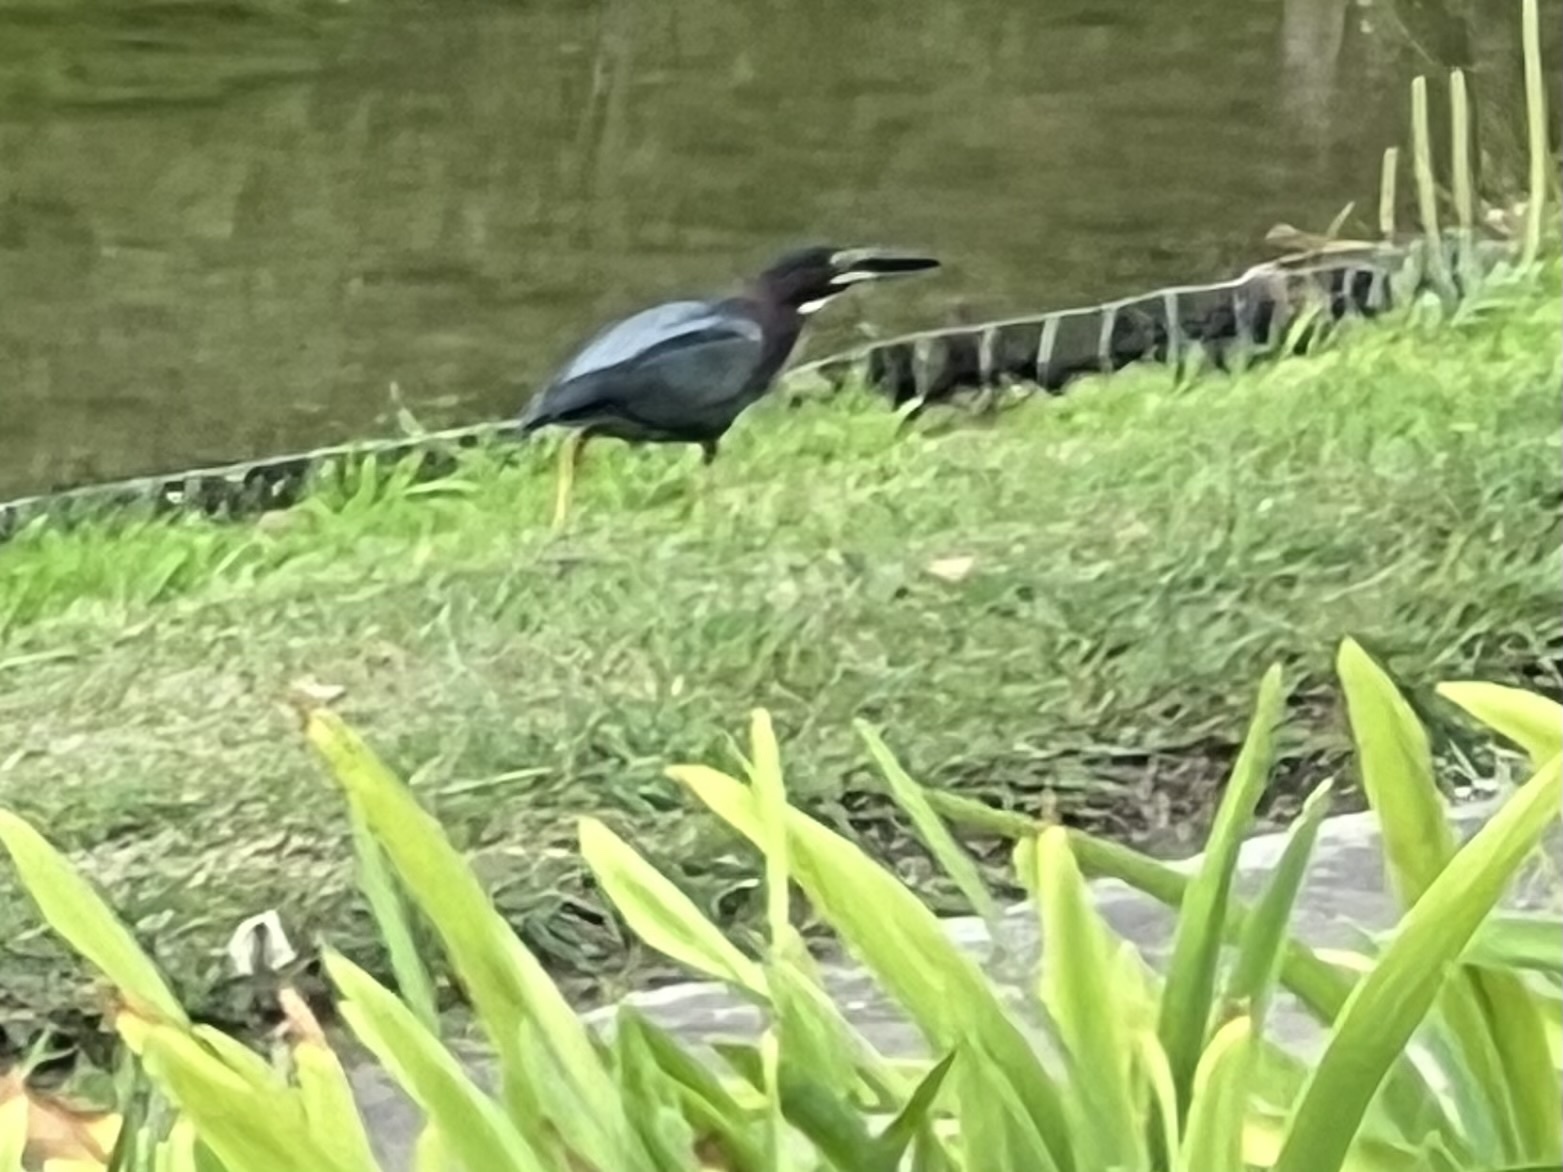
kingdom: Animalia
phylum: Chordata
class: Aves
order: Pelecaniformes
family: Ardeidae
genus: Butorides
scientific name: Butorides virescens
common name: Green heron
